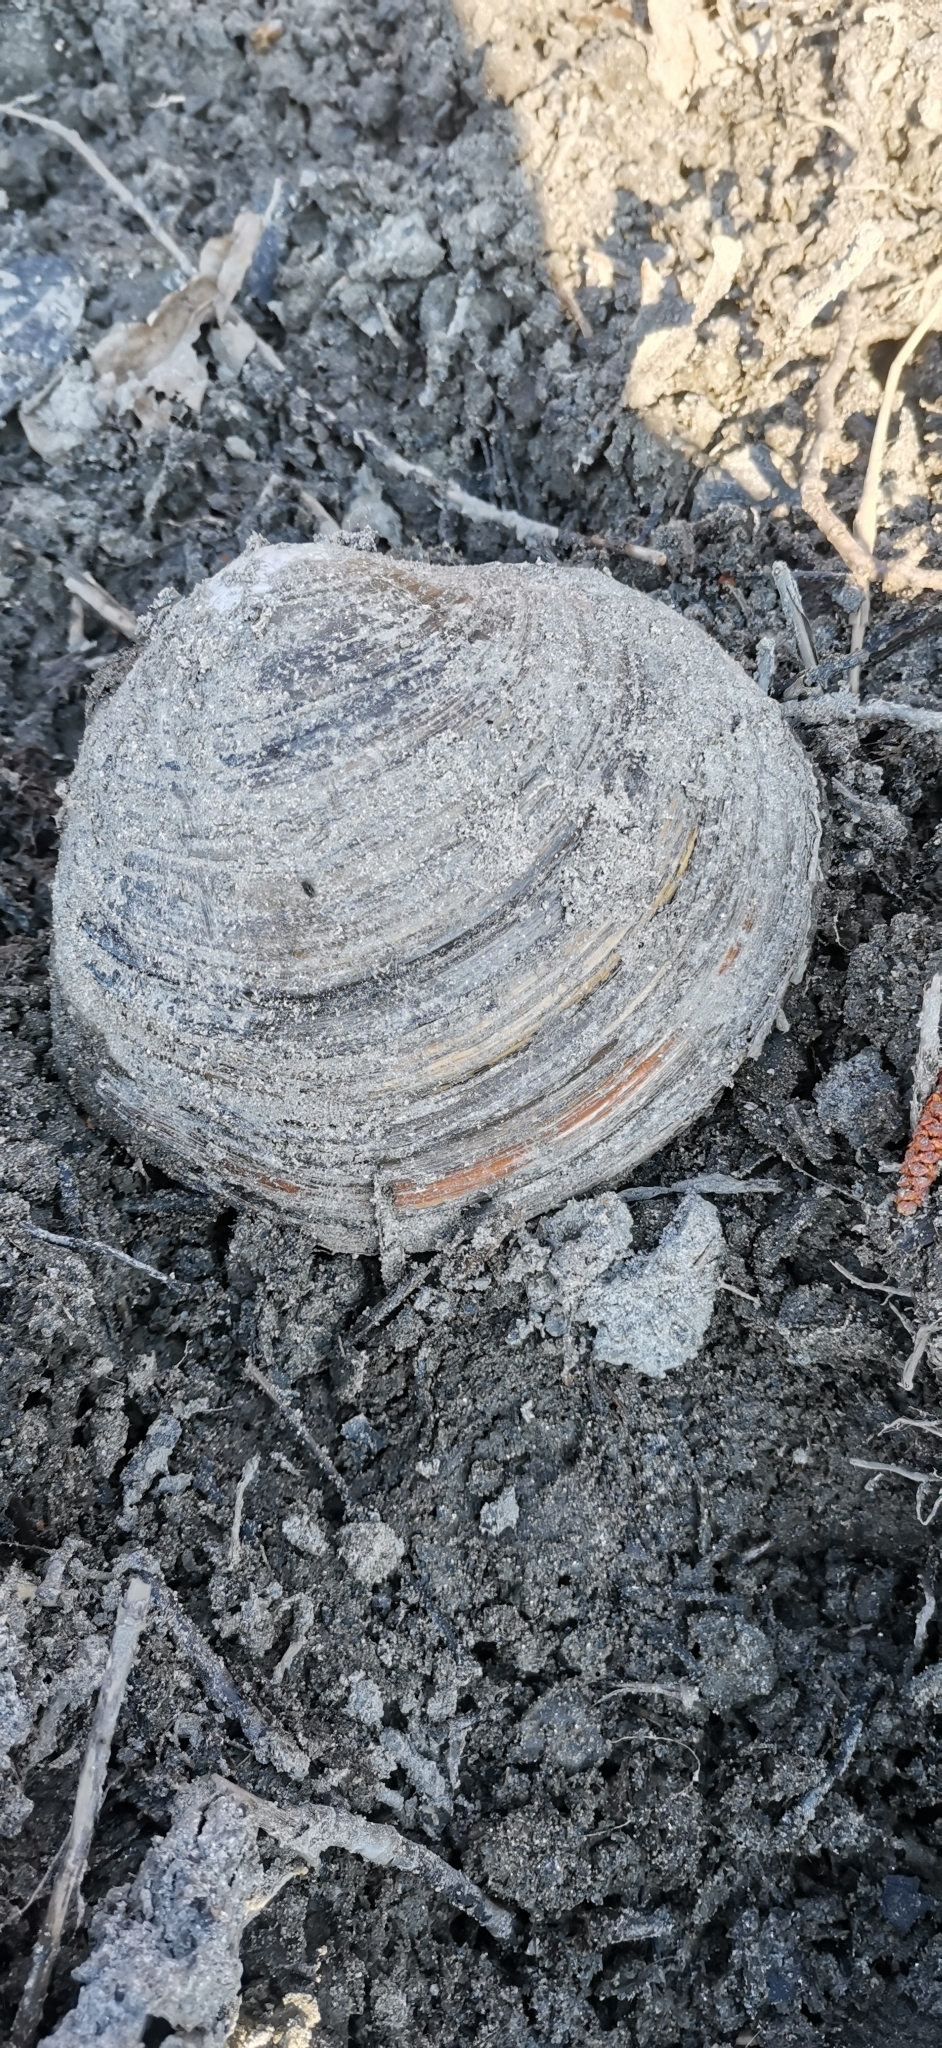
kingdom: Animalia
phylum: Mollusca
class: Bivalvia
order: Unionida
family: Unionidae
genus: Sinanodonta
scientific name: Sinanodonta woodiana
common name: Chinese pond mussel
